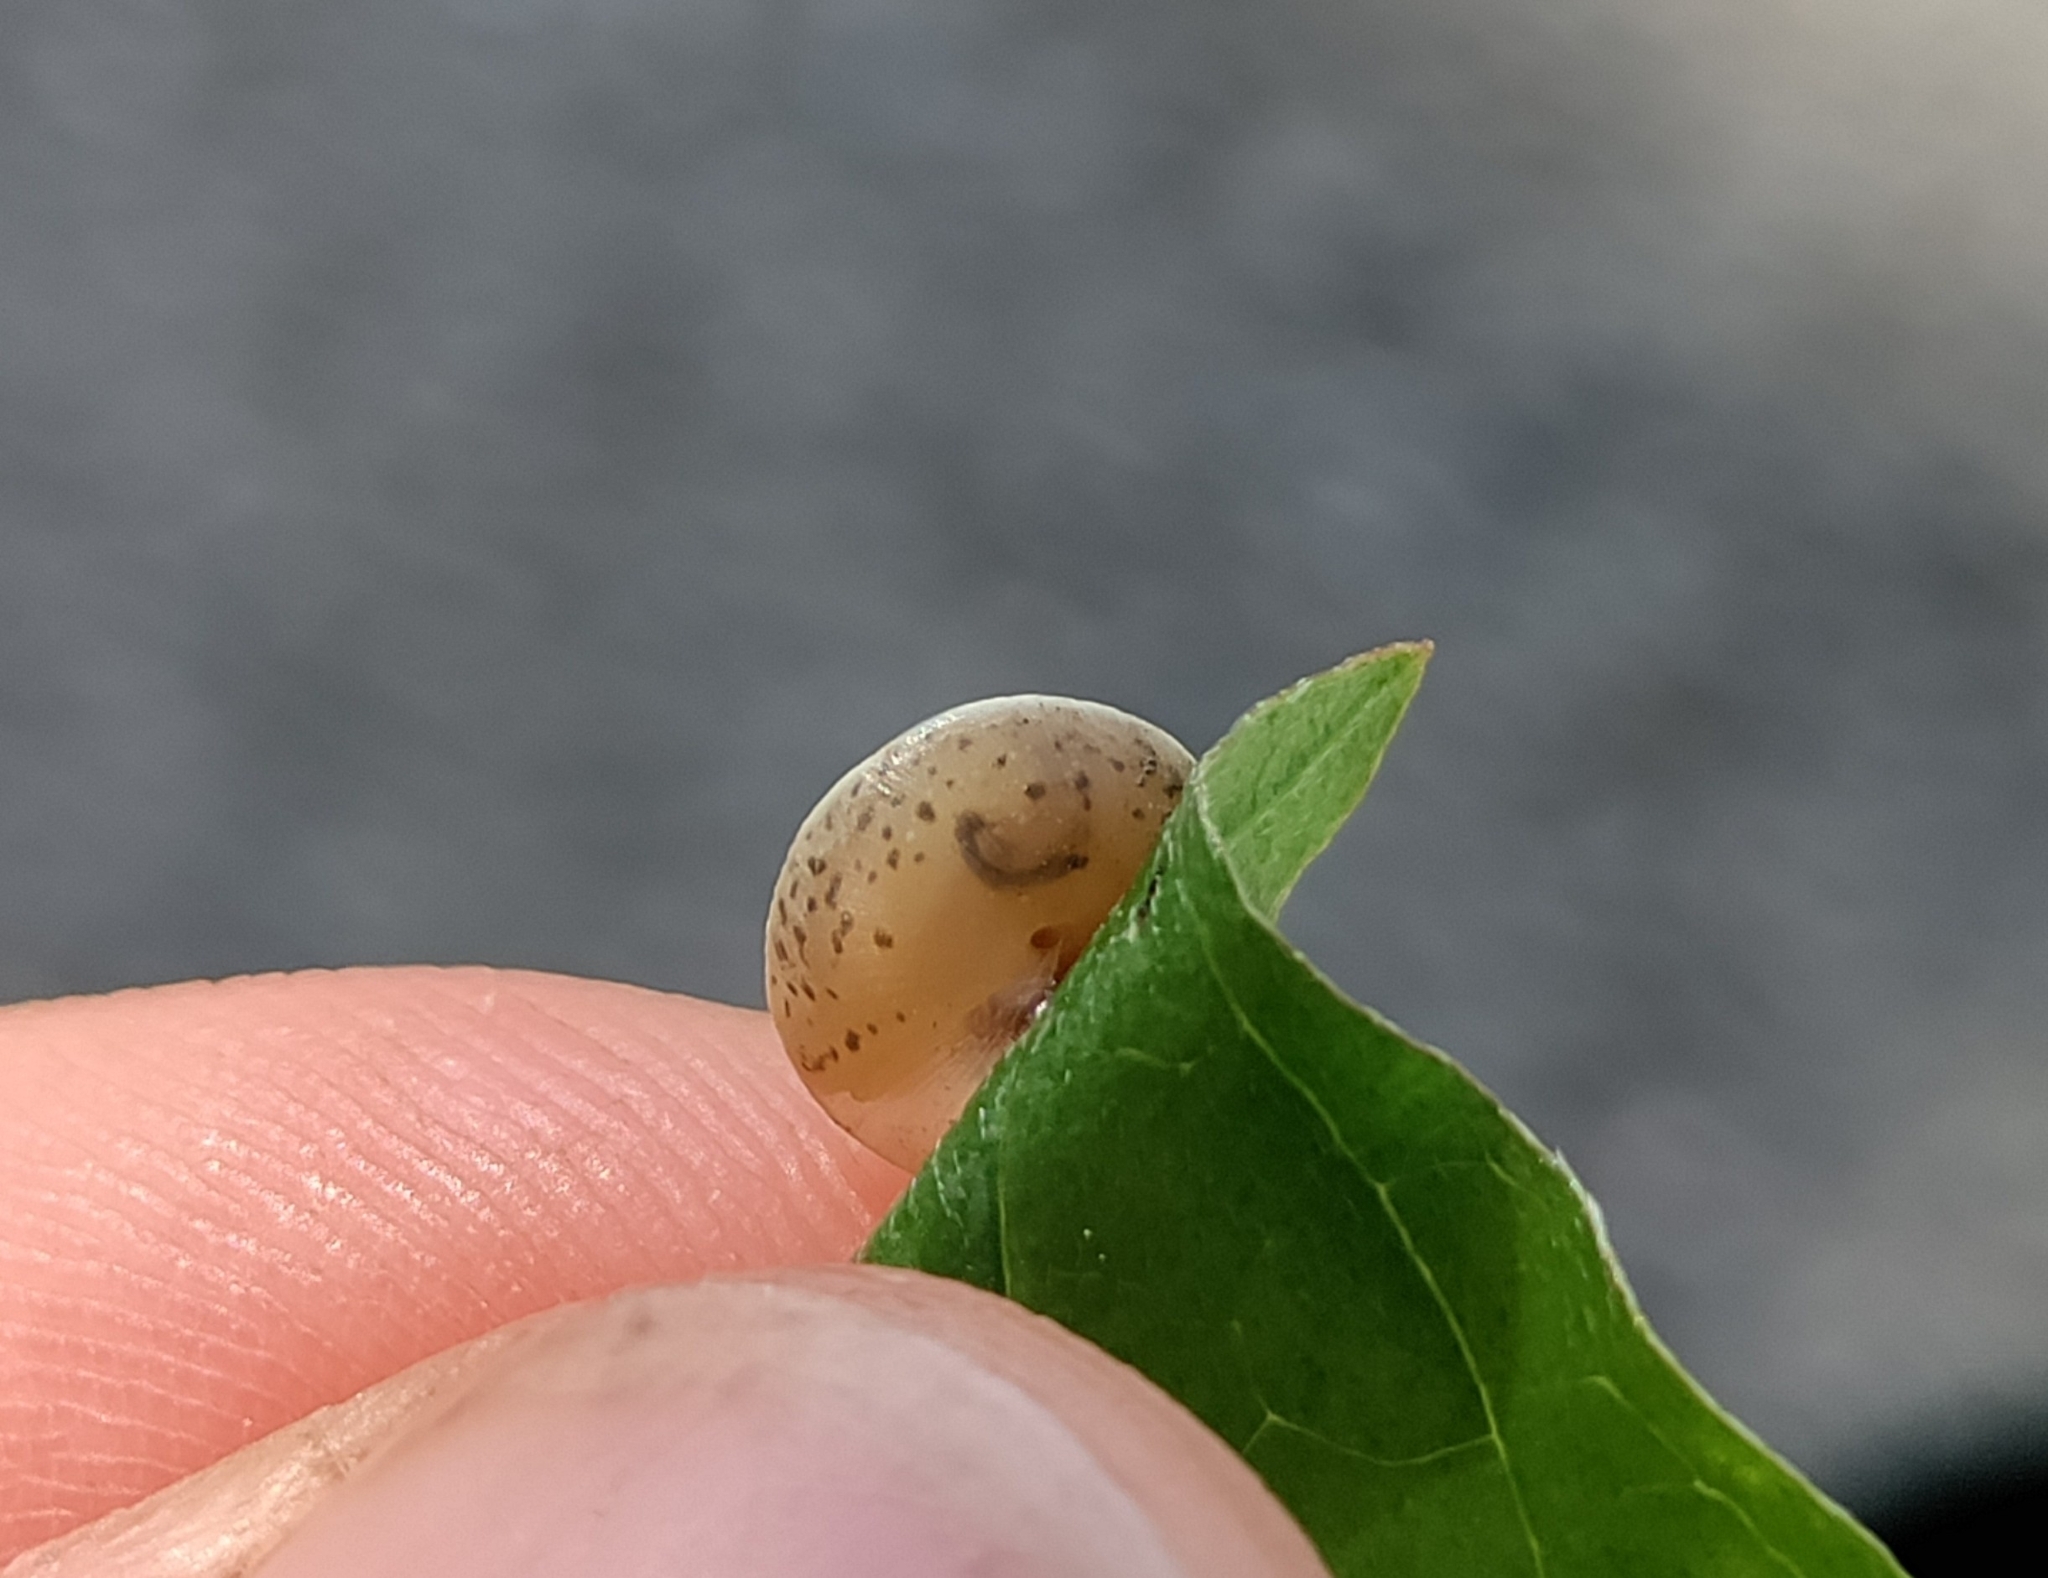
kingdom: Animalia
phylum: Mollusca
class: Gastropoda
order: Stylommatophora
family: Hygromiidae
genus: Hygromia
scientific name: Hygromia cinctella
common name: Girdled snail
